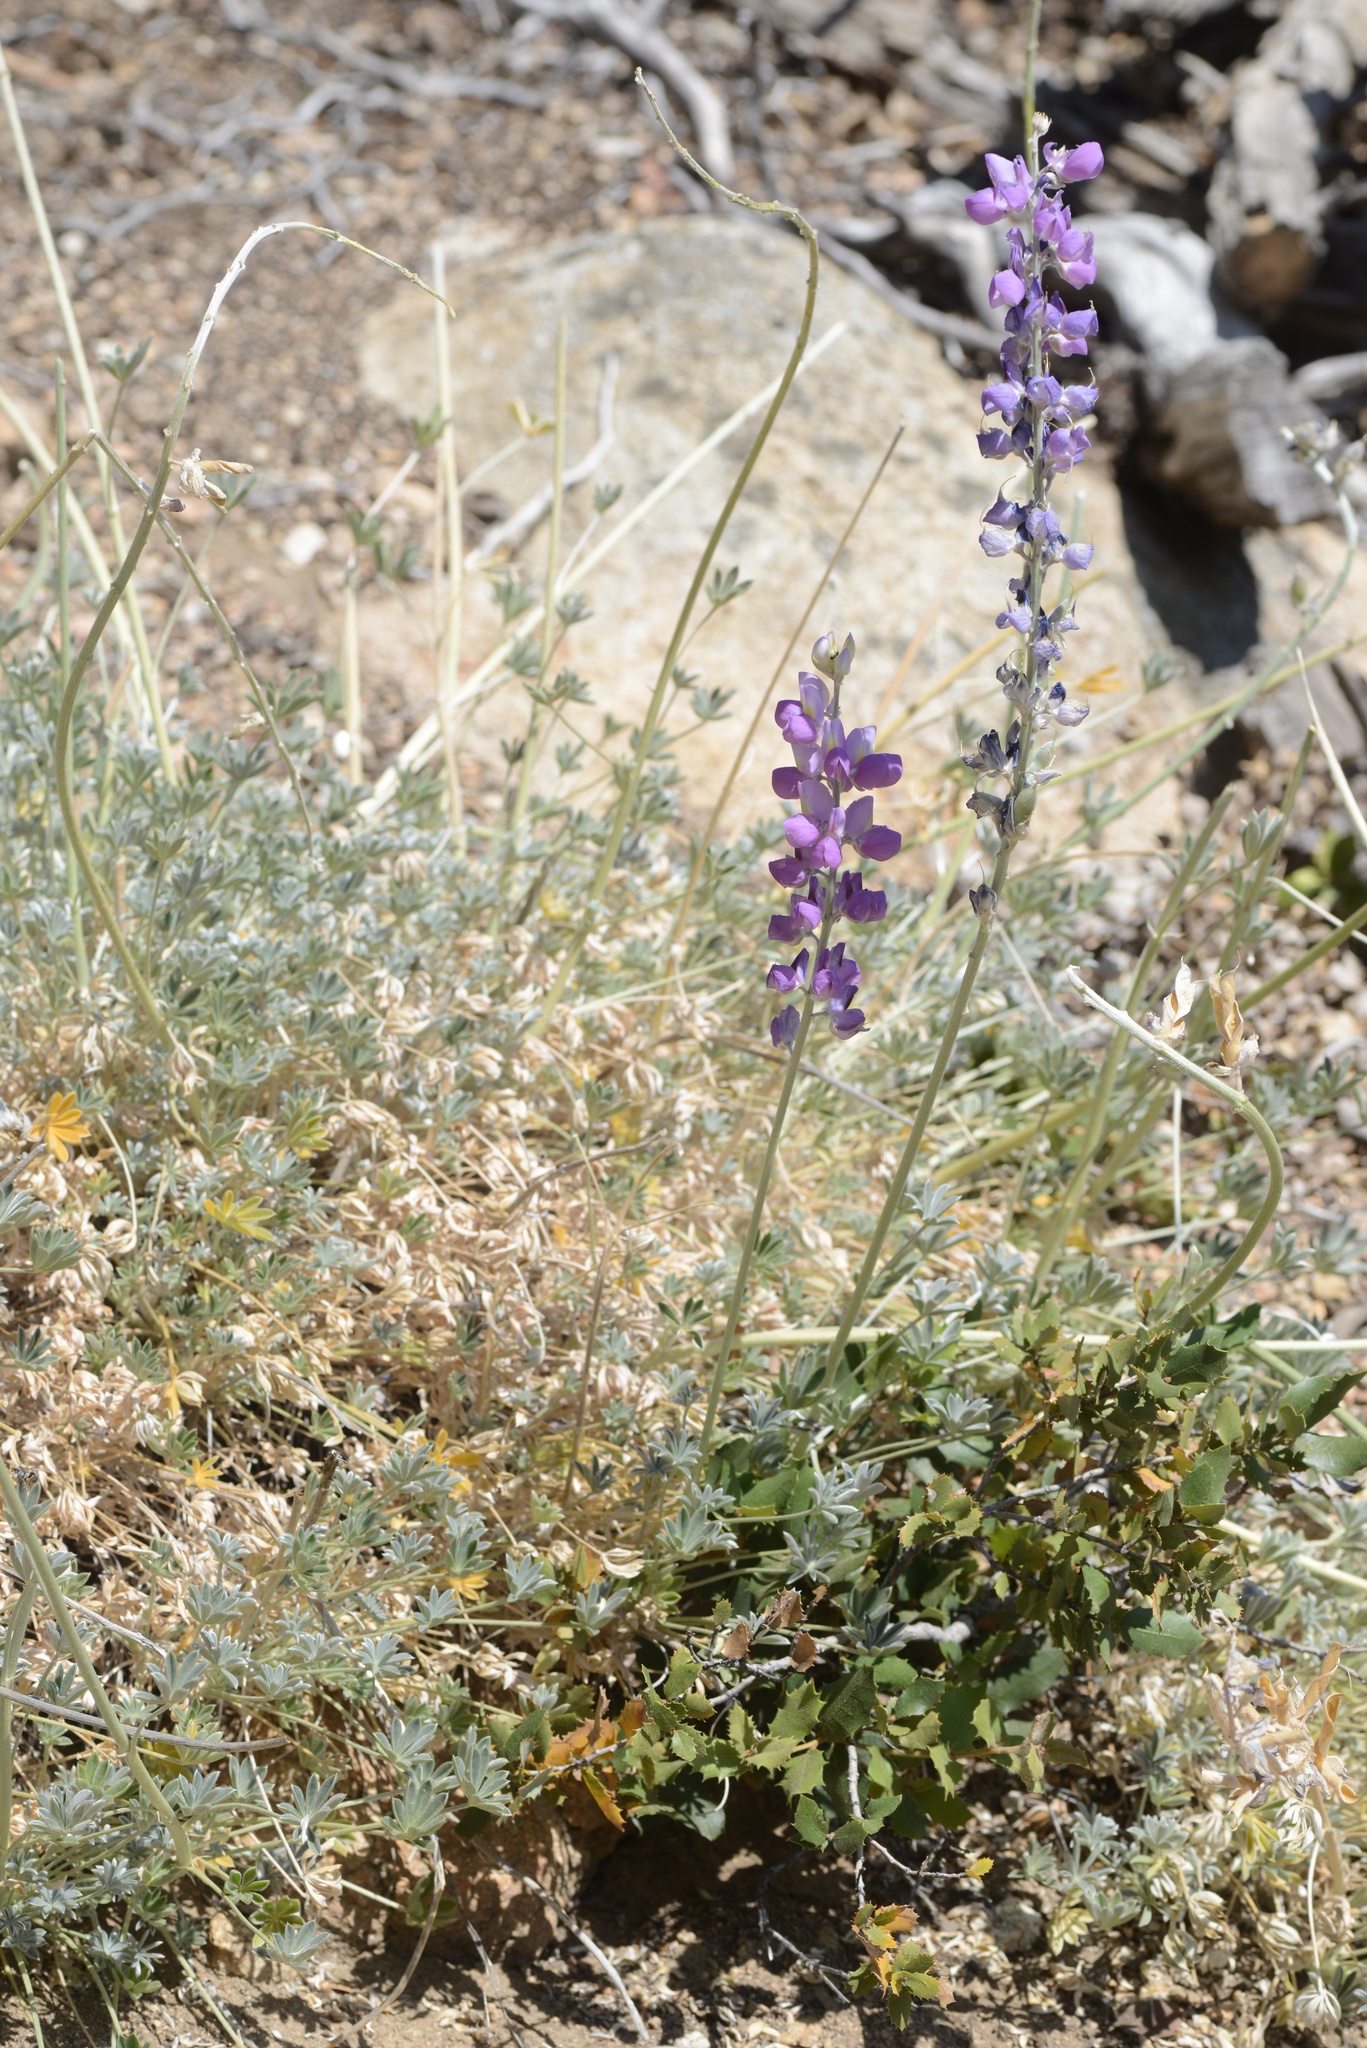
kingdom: Plantae
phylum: Tracheophyta
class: Magnoliopsida
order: Fabales
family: Fabaceae
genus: Lupinus
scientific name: Lupinus excubitus
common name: Grape soda lupine
